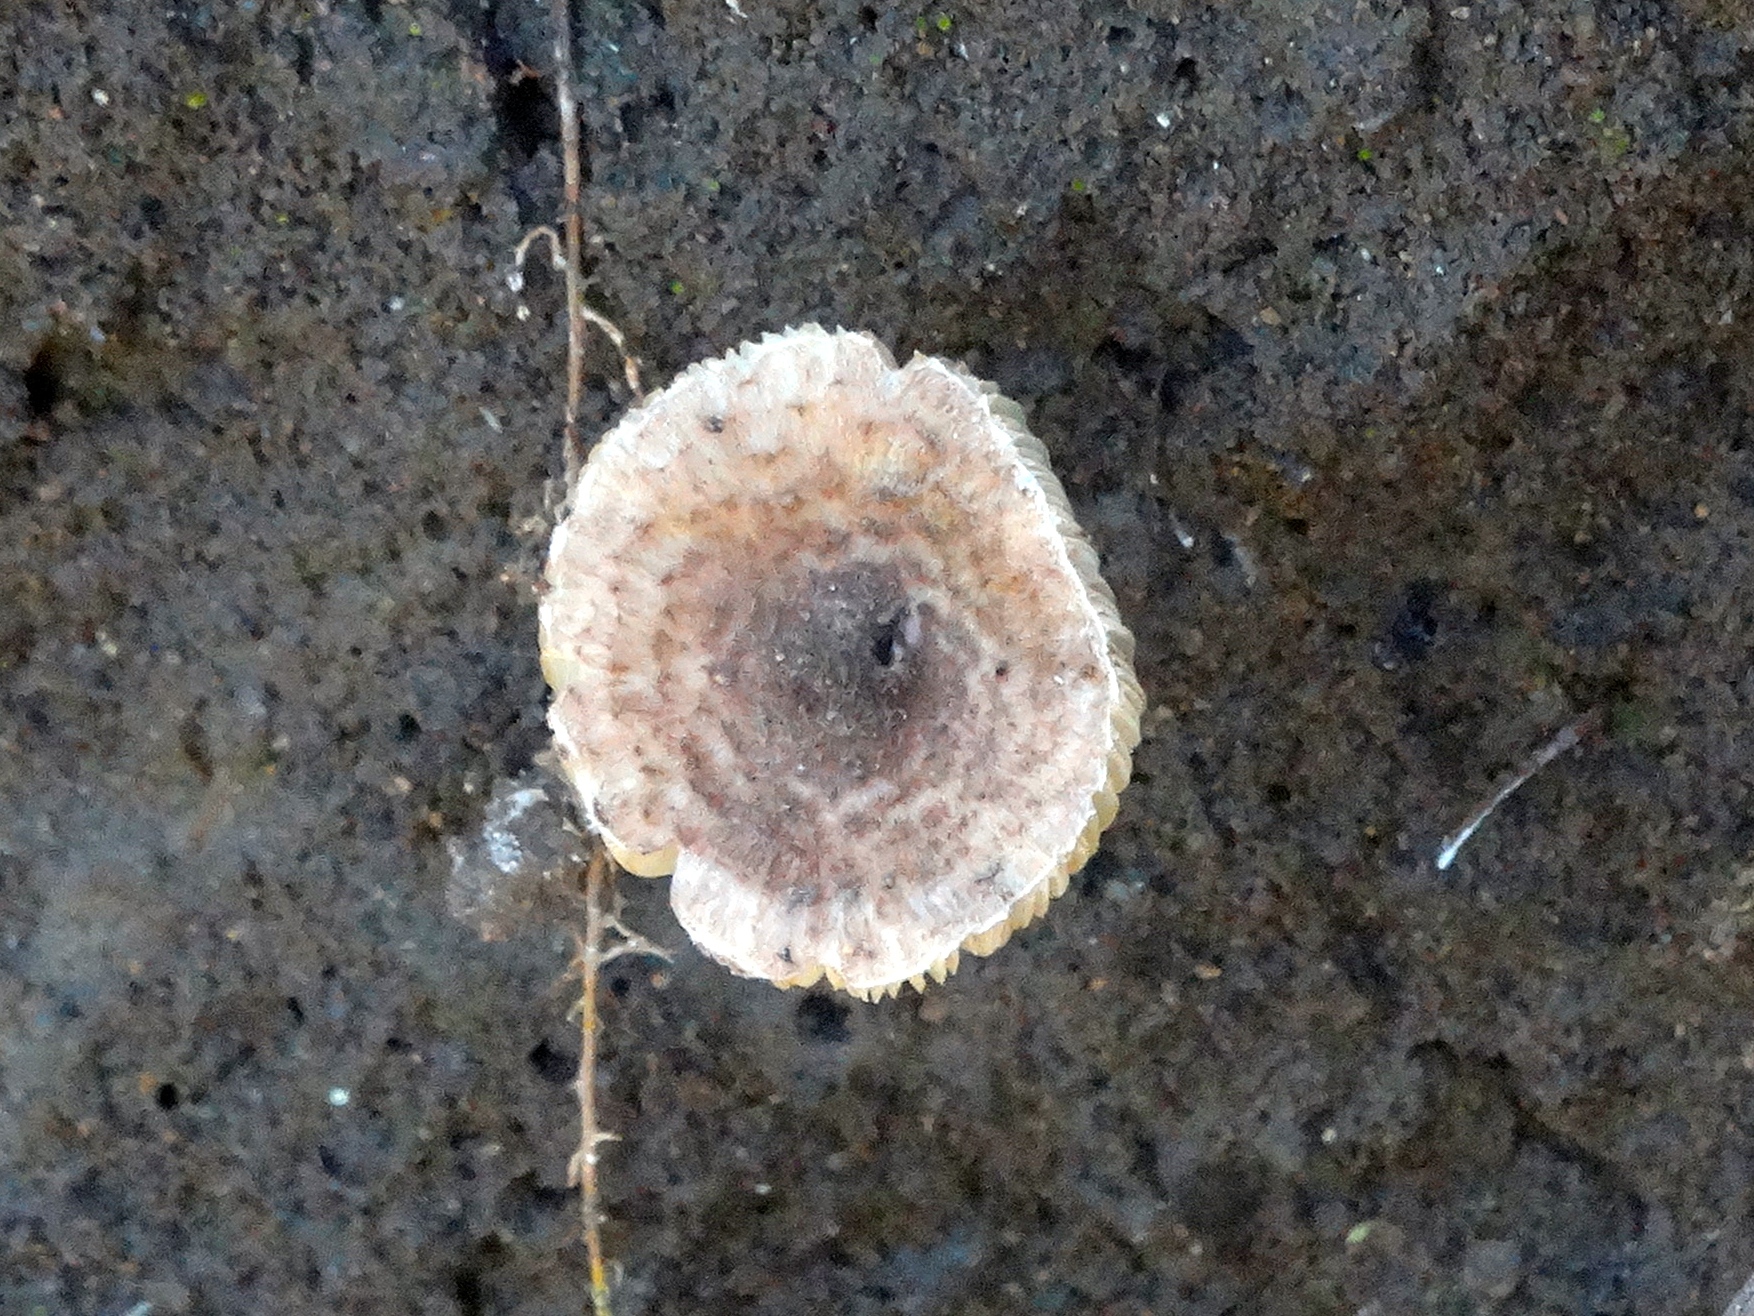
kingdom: Fungi
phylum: Basidiomycota
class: Agaricomycetes
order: Agaricales
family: Agaricaceae
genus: Lepiota
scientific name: Lepiota
